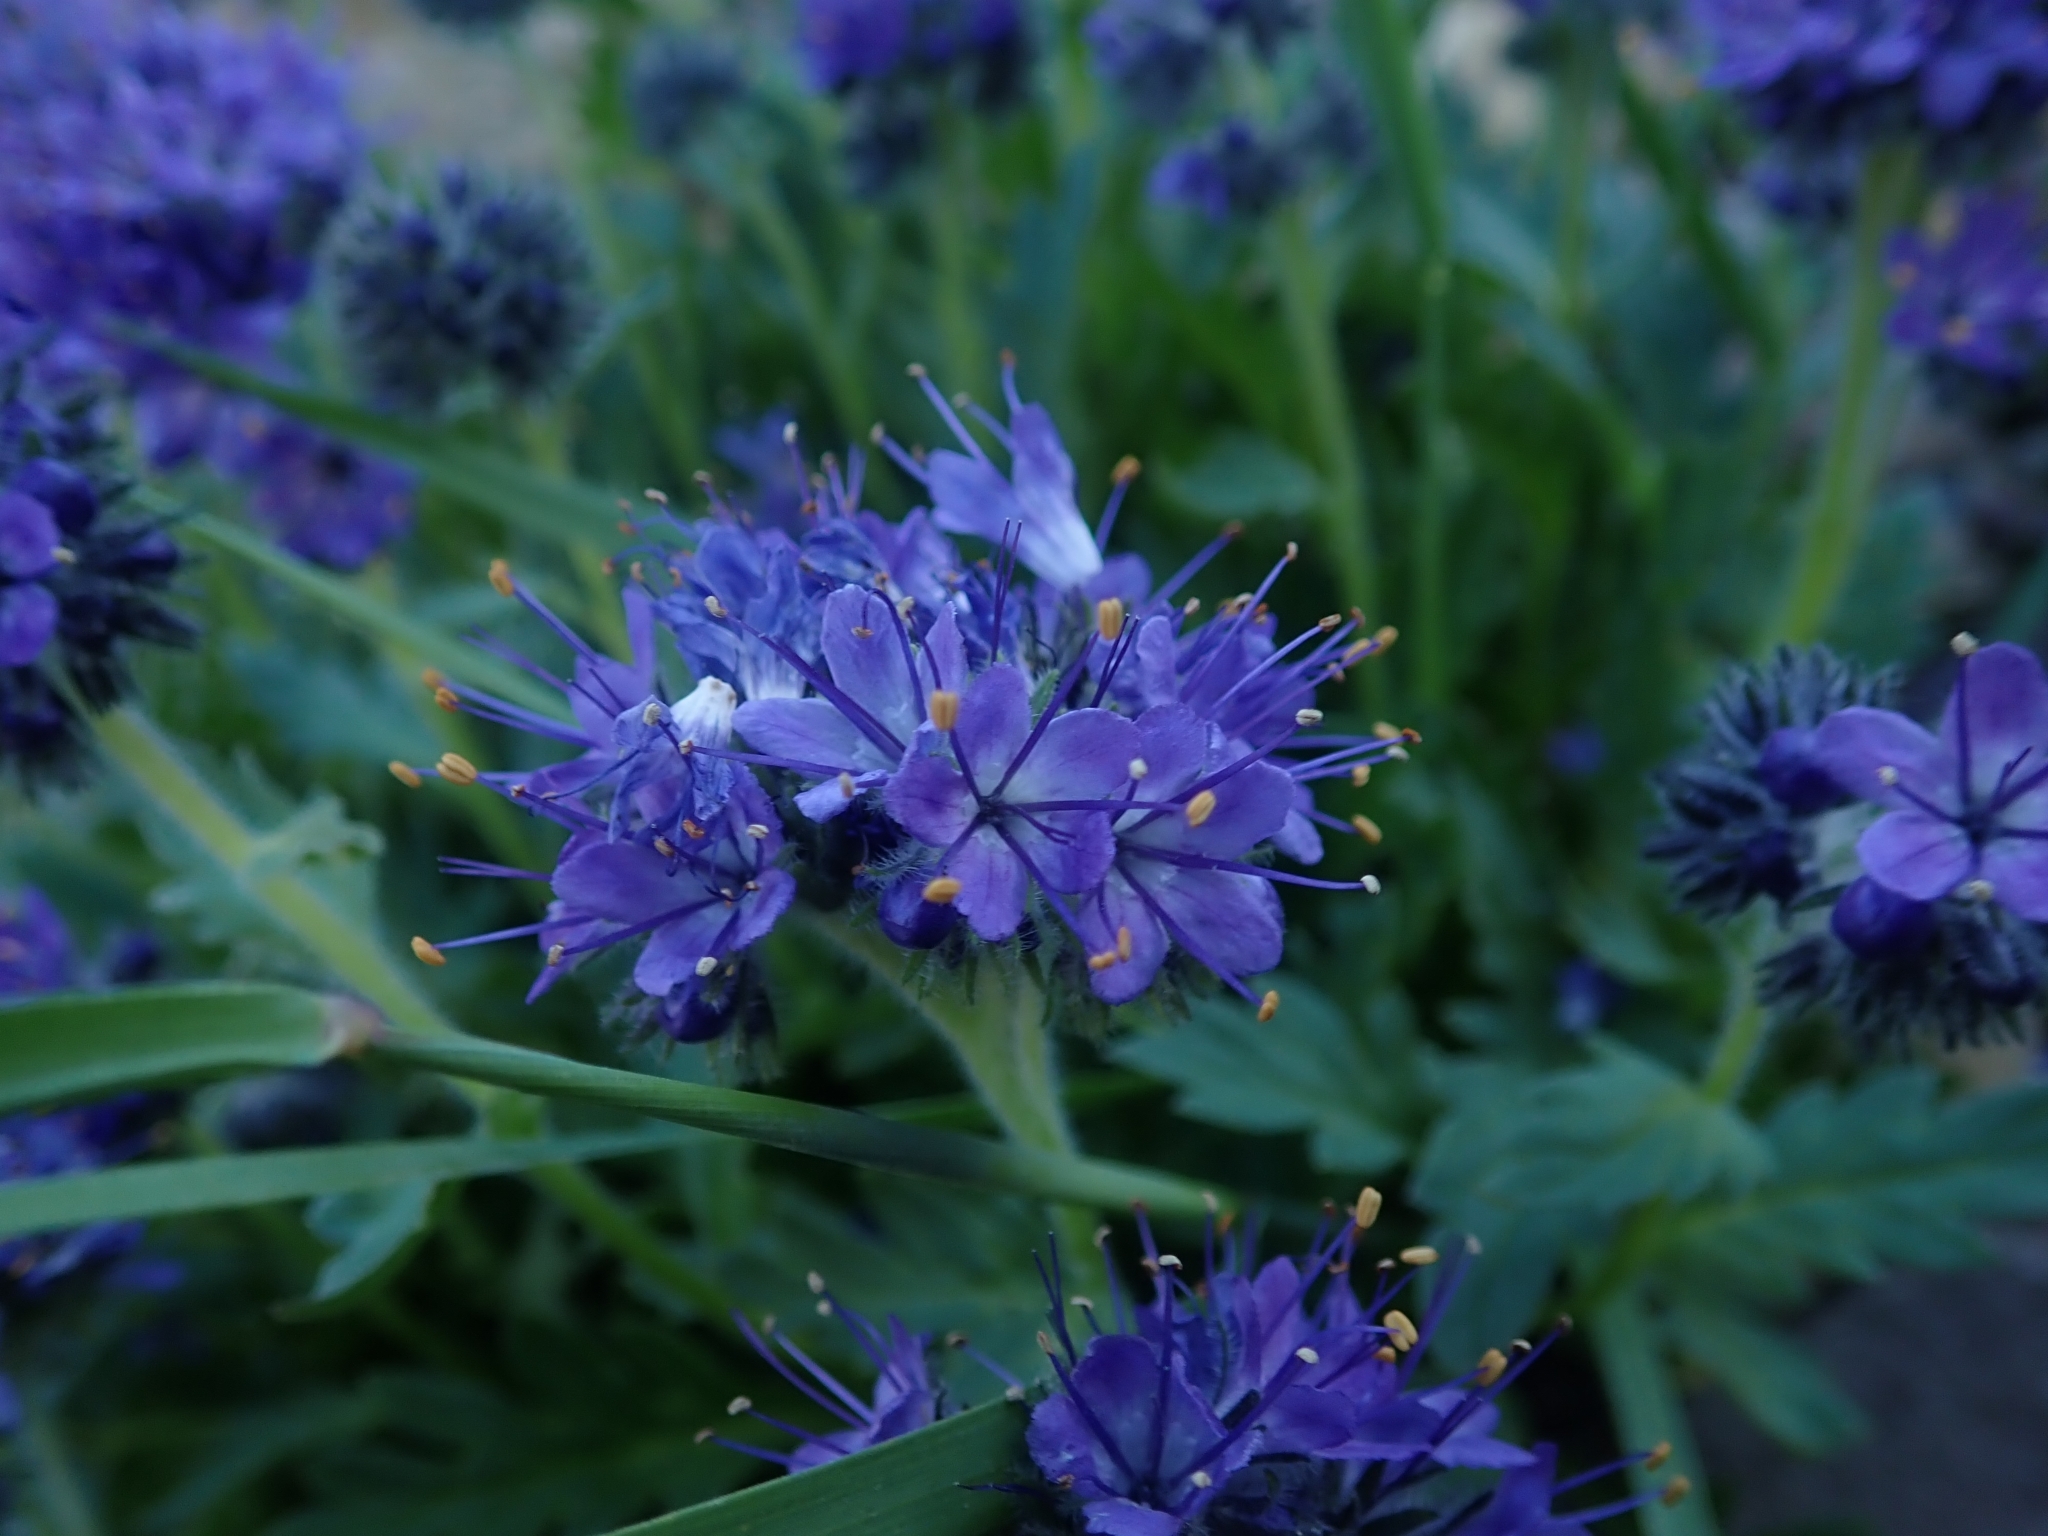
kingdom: Plantae
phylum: Tracheophyta
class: Magnoliopsida
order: Boraginales
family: Hydrophyllaceae
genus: Phacelia
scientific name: Phacelia lyallii
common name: Lyall's phacelia
